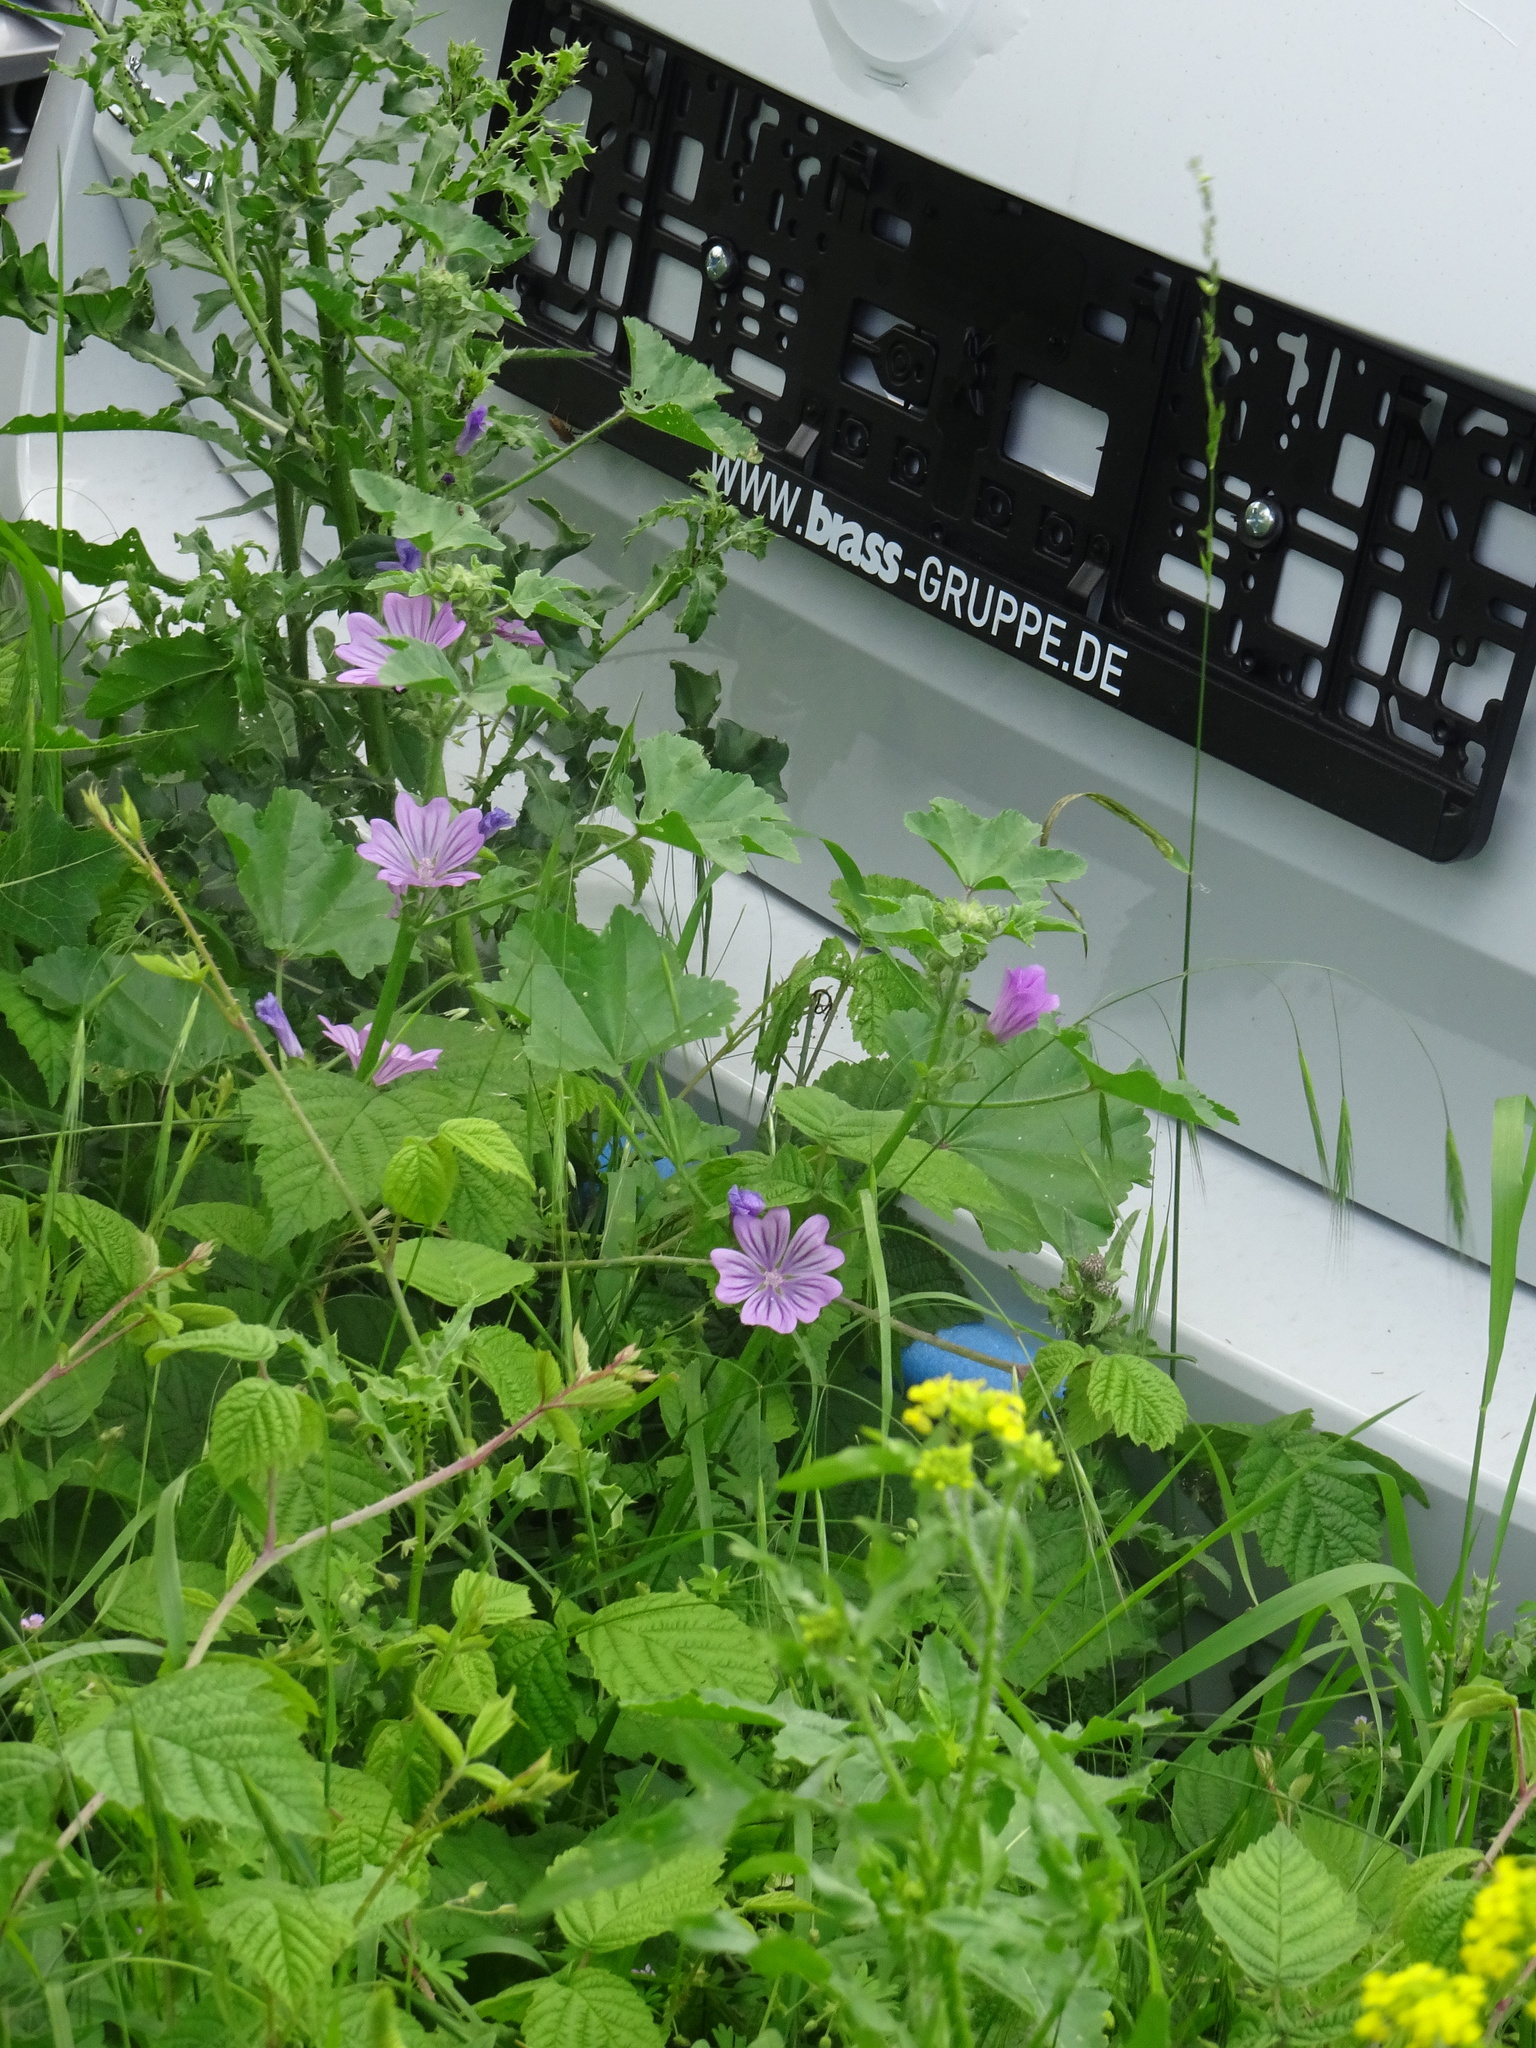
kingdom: Plantae
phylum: Tracheophyta
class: Magnoliopsida
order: Malvales
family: Malvaceae
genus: Malva
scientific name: Malva sylvestris
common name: Common mallow
